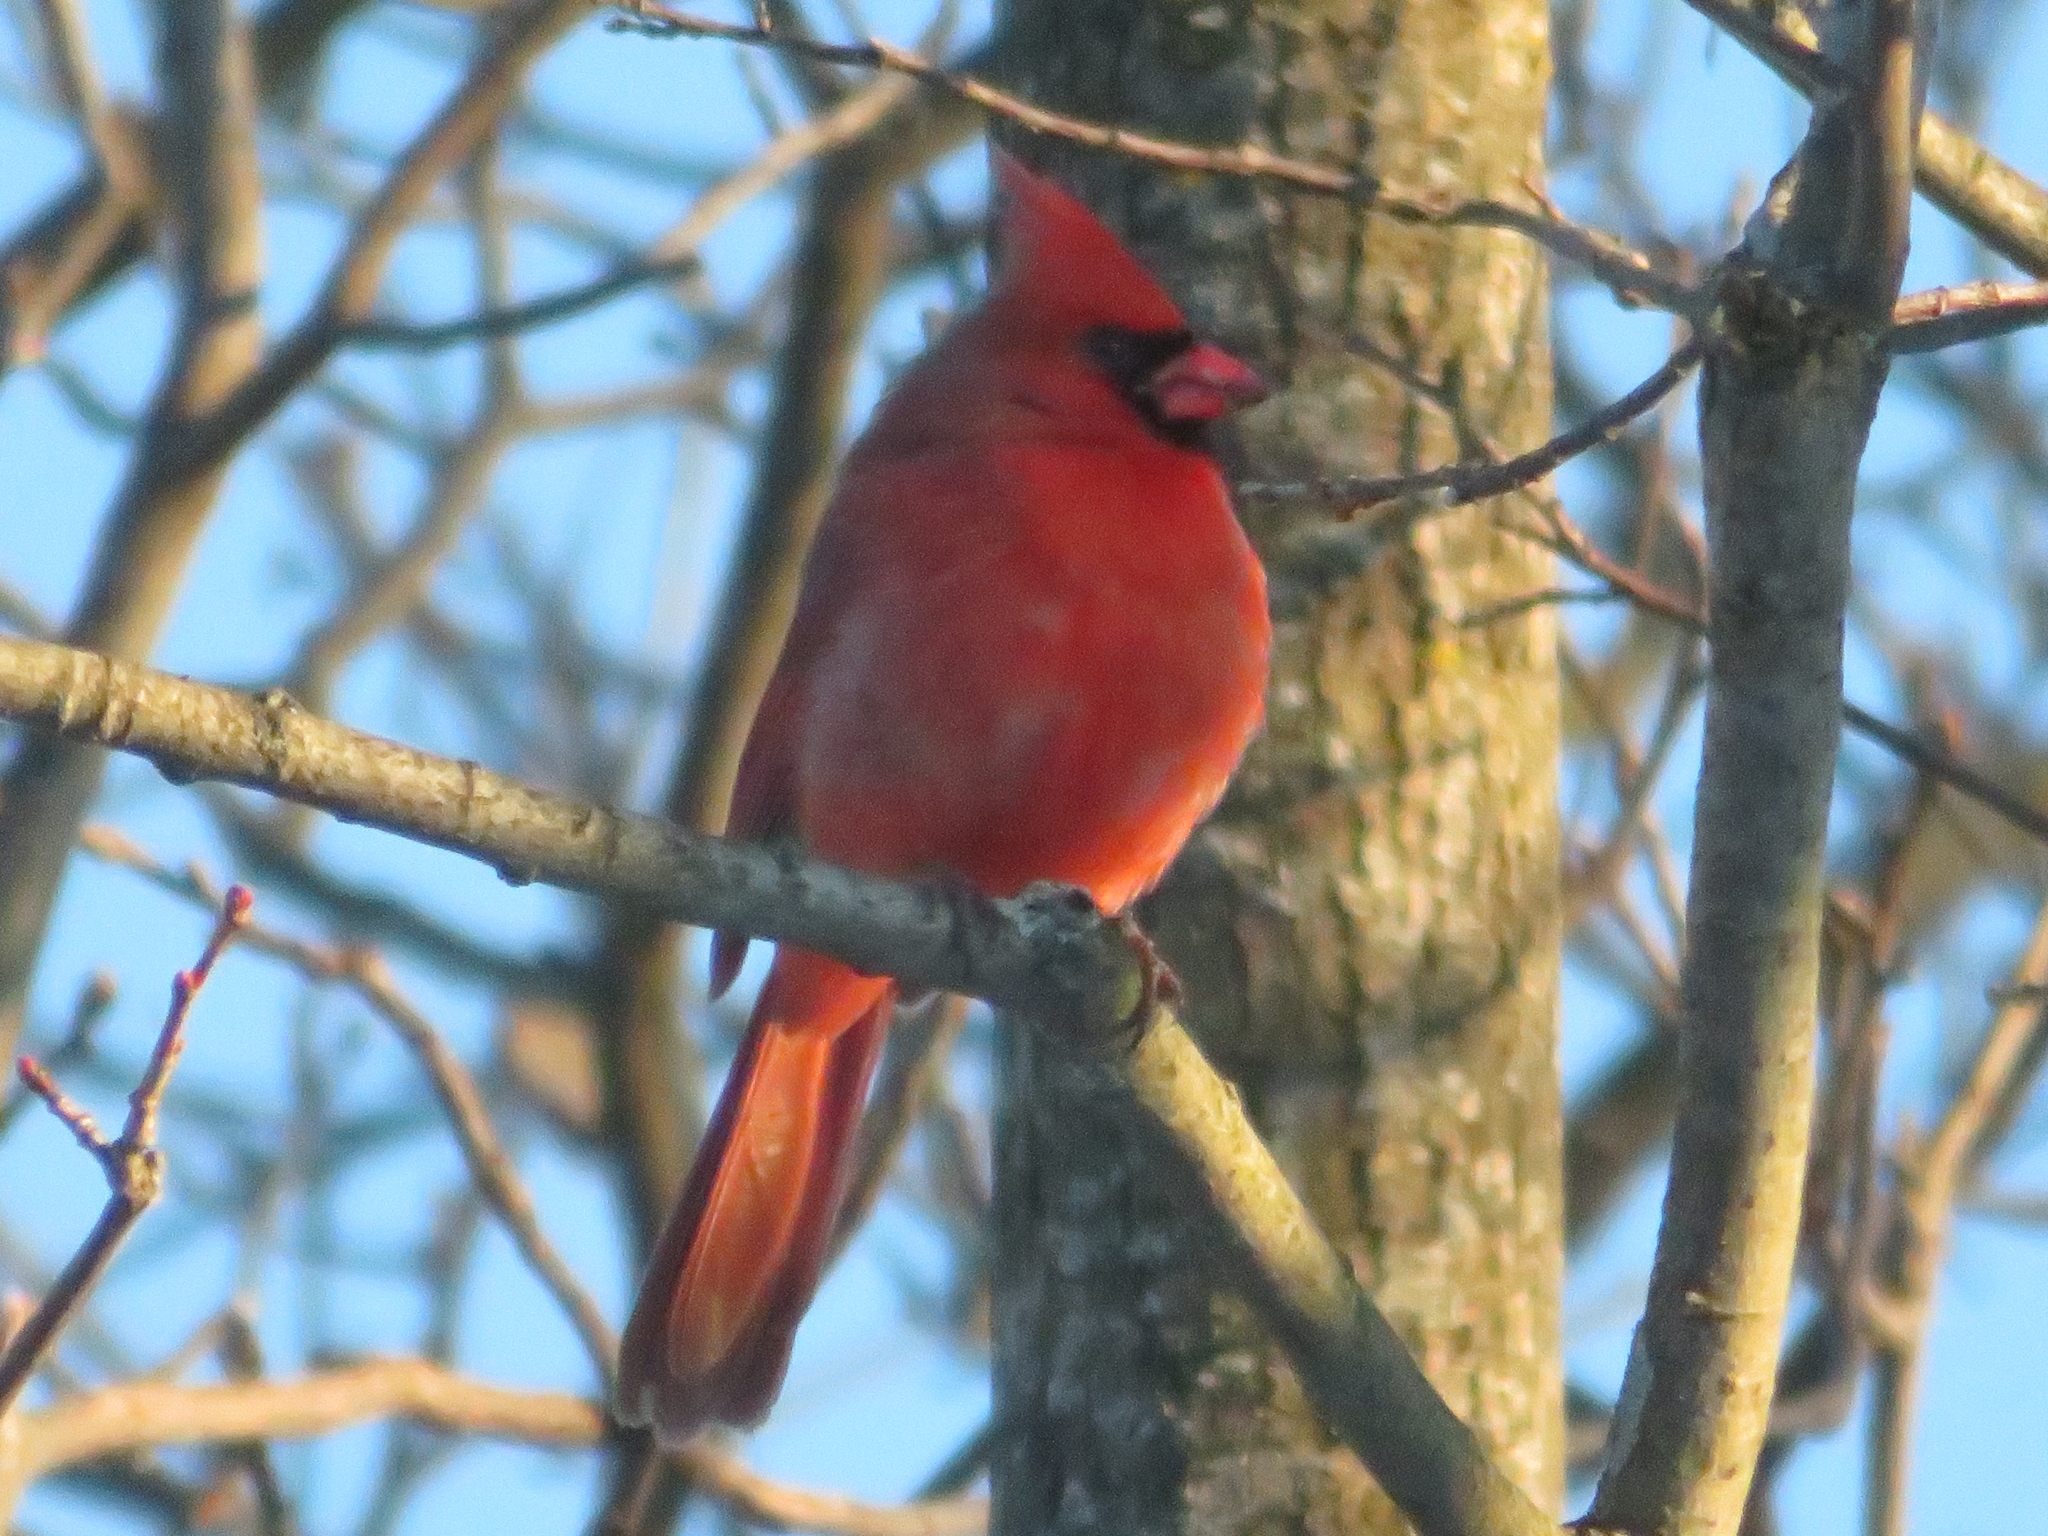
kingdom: Animalia
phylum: Chordata
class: Aves
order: Passeriformes
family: Cardinalidae
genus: Cardinalis
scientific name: Cardinalis cardinalis
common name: Northern cardinal
